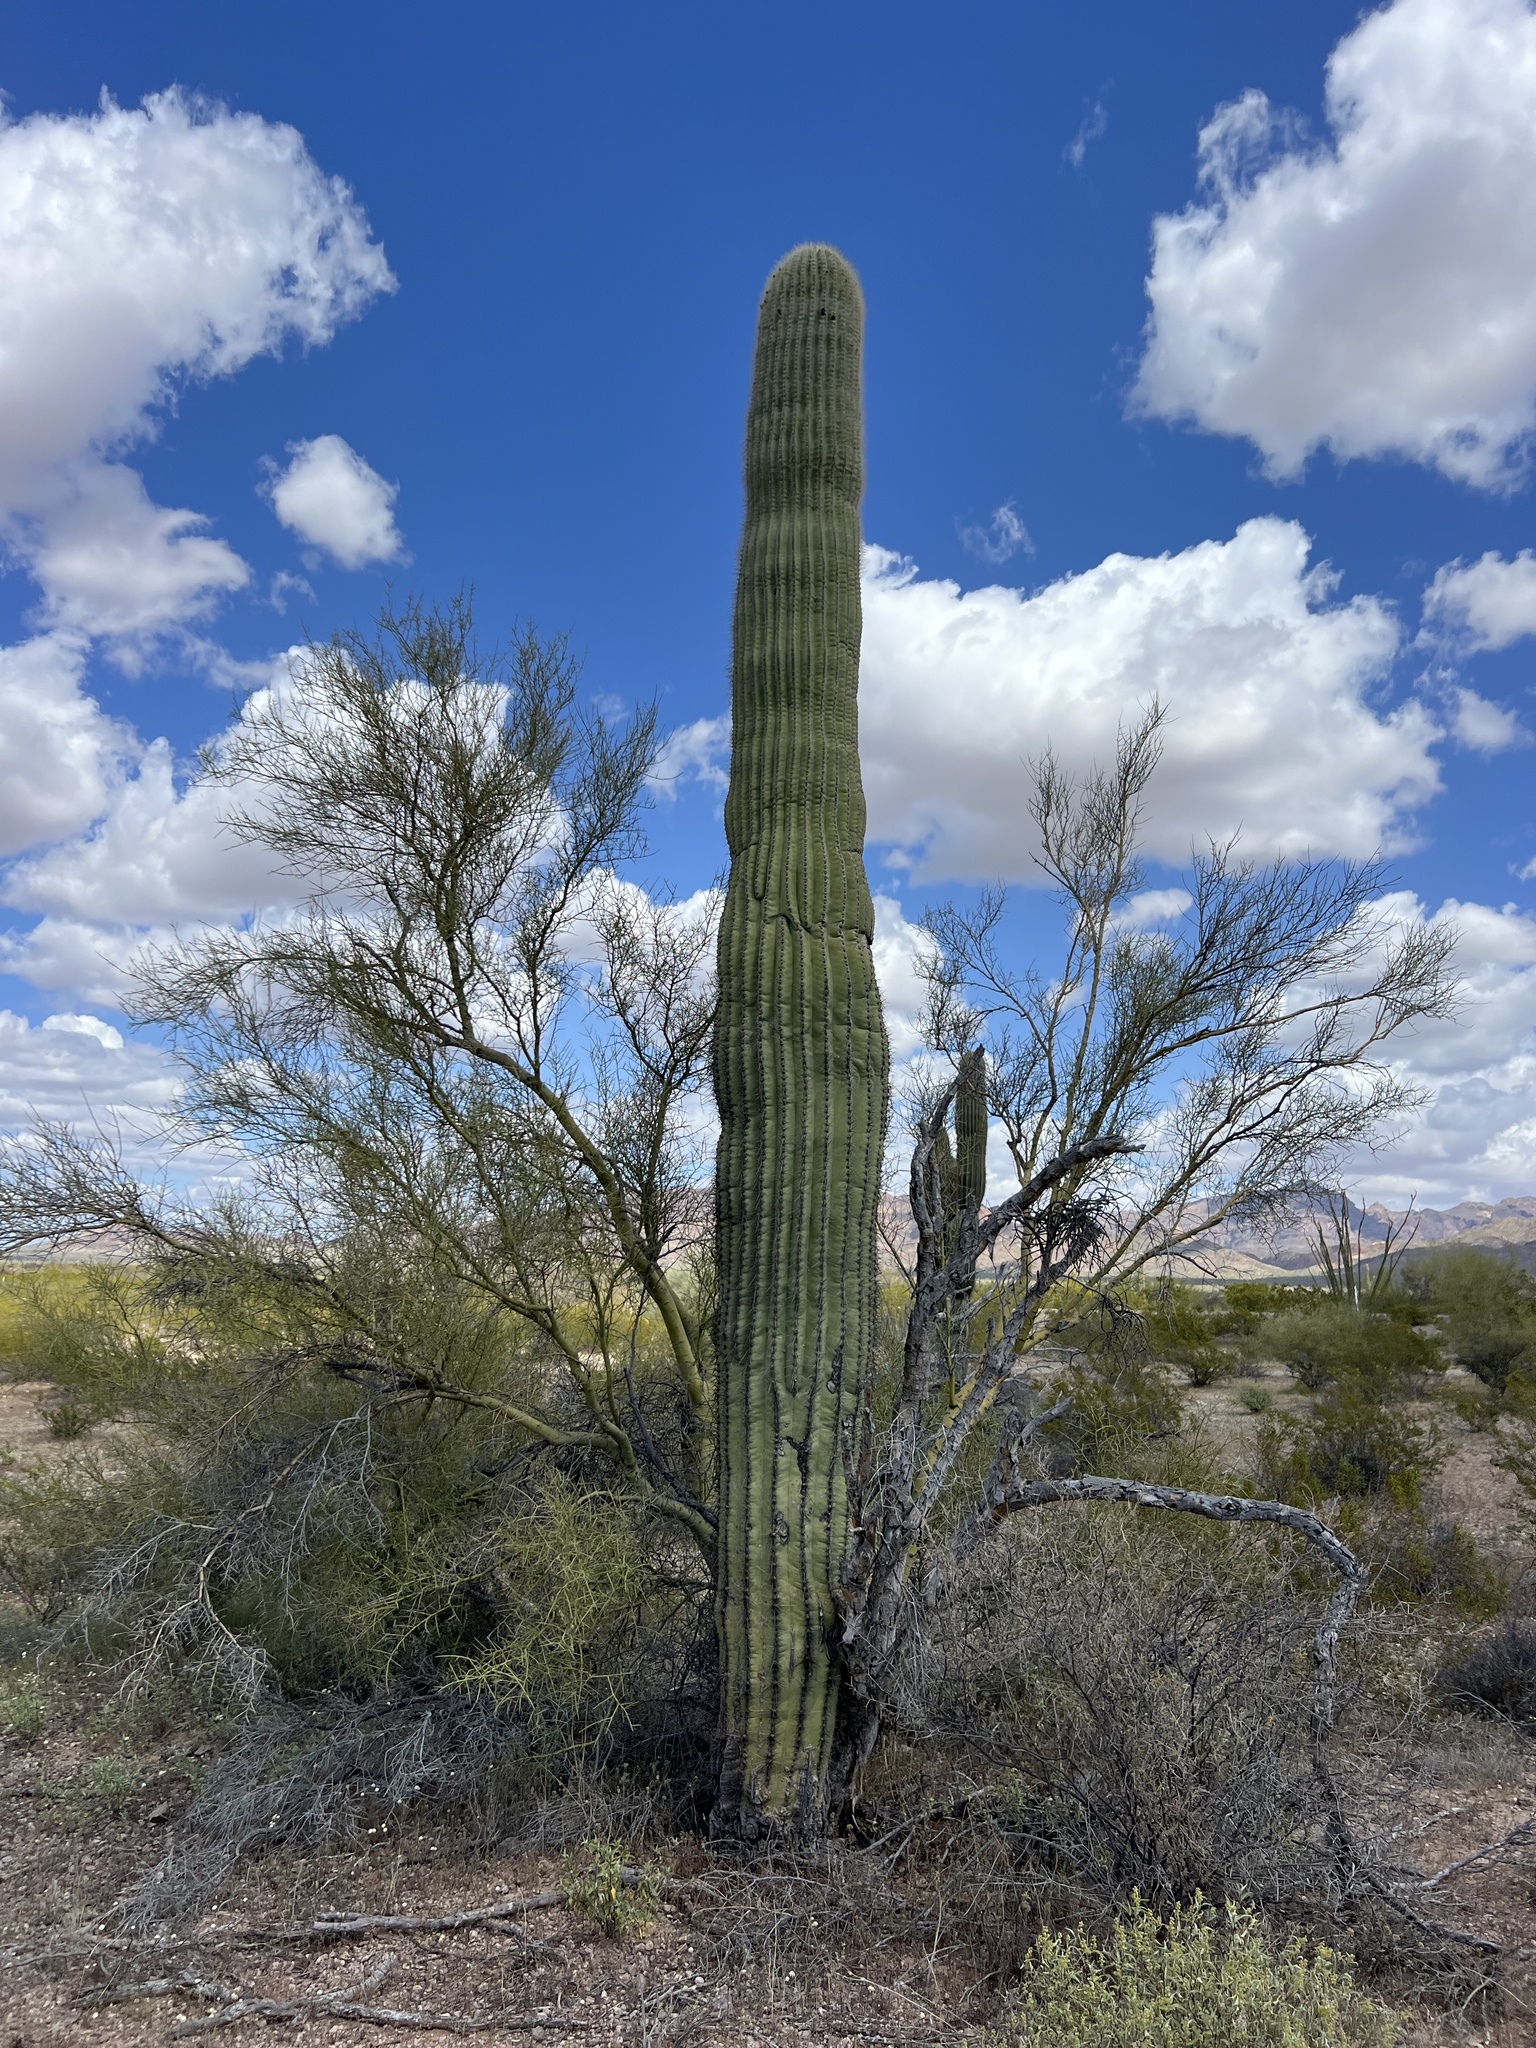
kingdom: Plantae
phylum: Tracheophyta
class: Magnoliopsida
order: Caryophyllales
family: Cactaceae
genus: Carnegiea
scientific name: Carnegiea gigantea
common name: Saguaro
